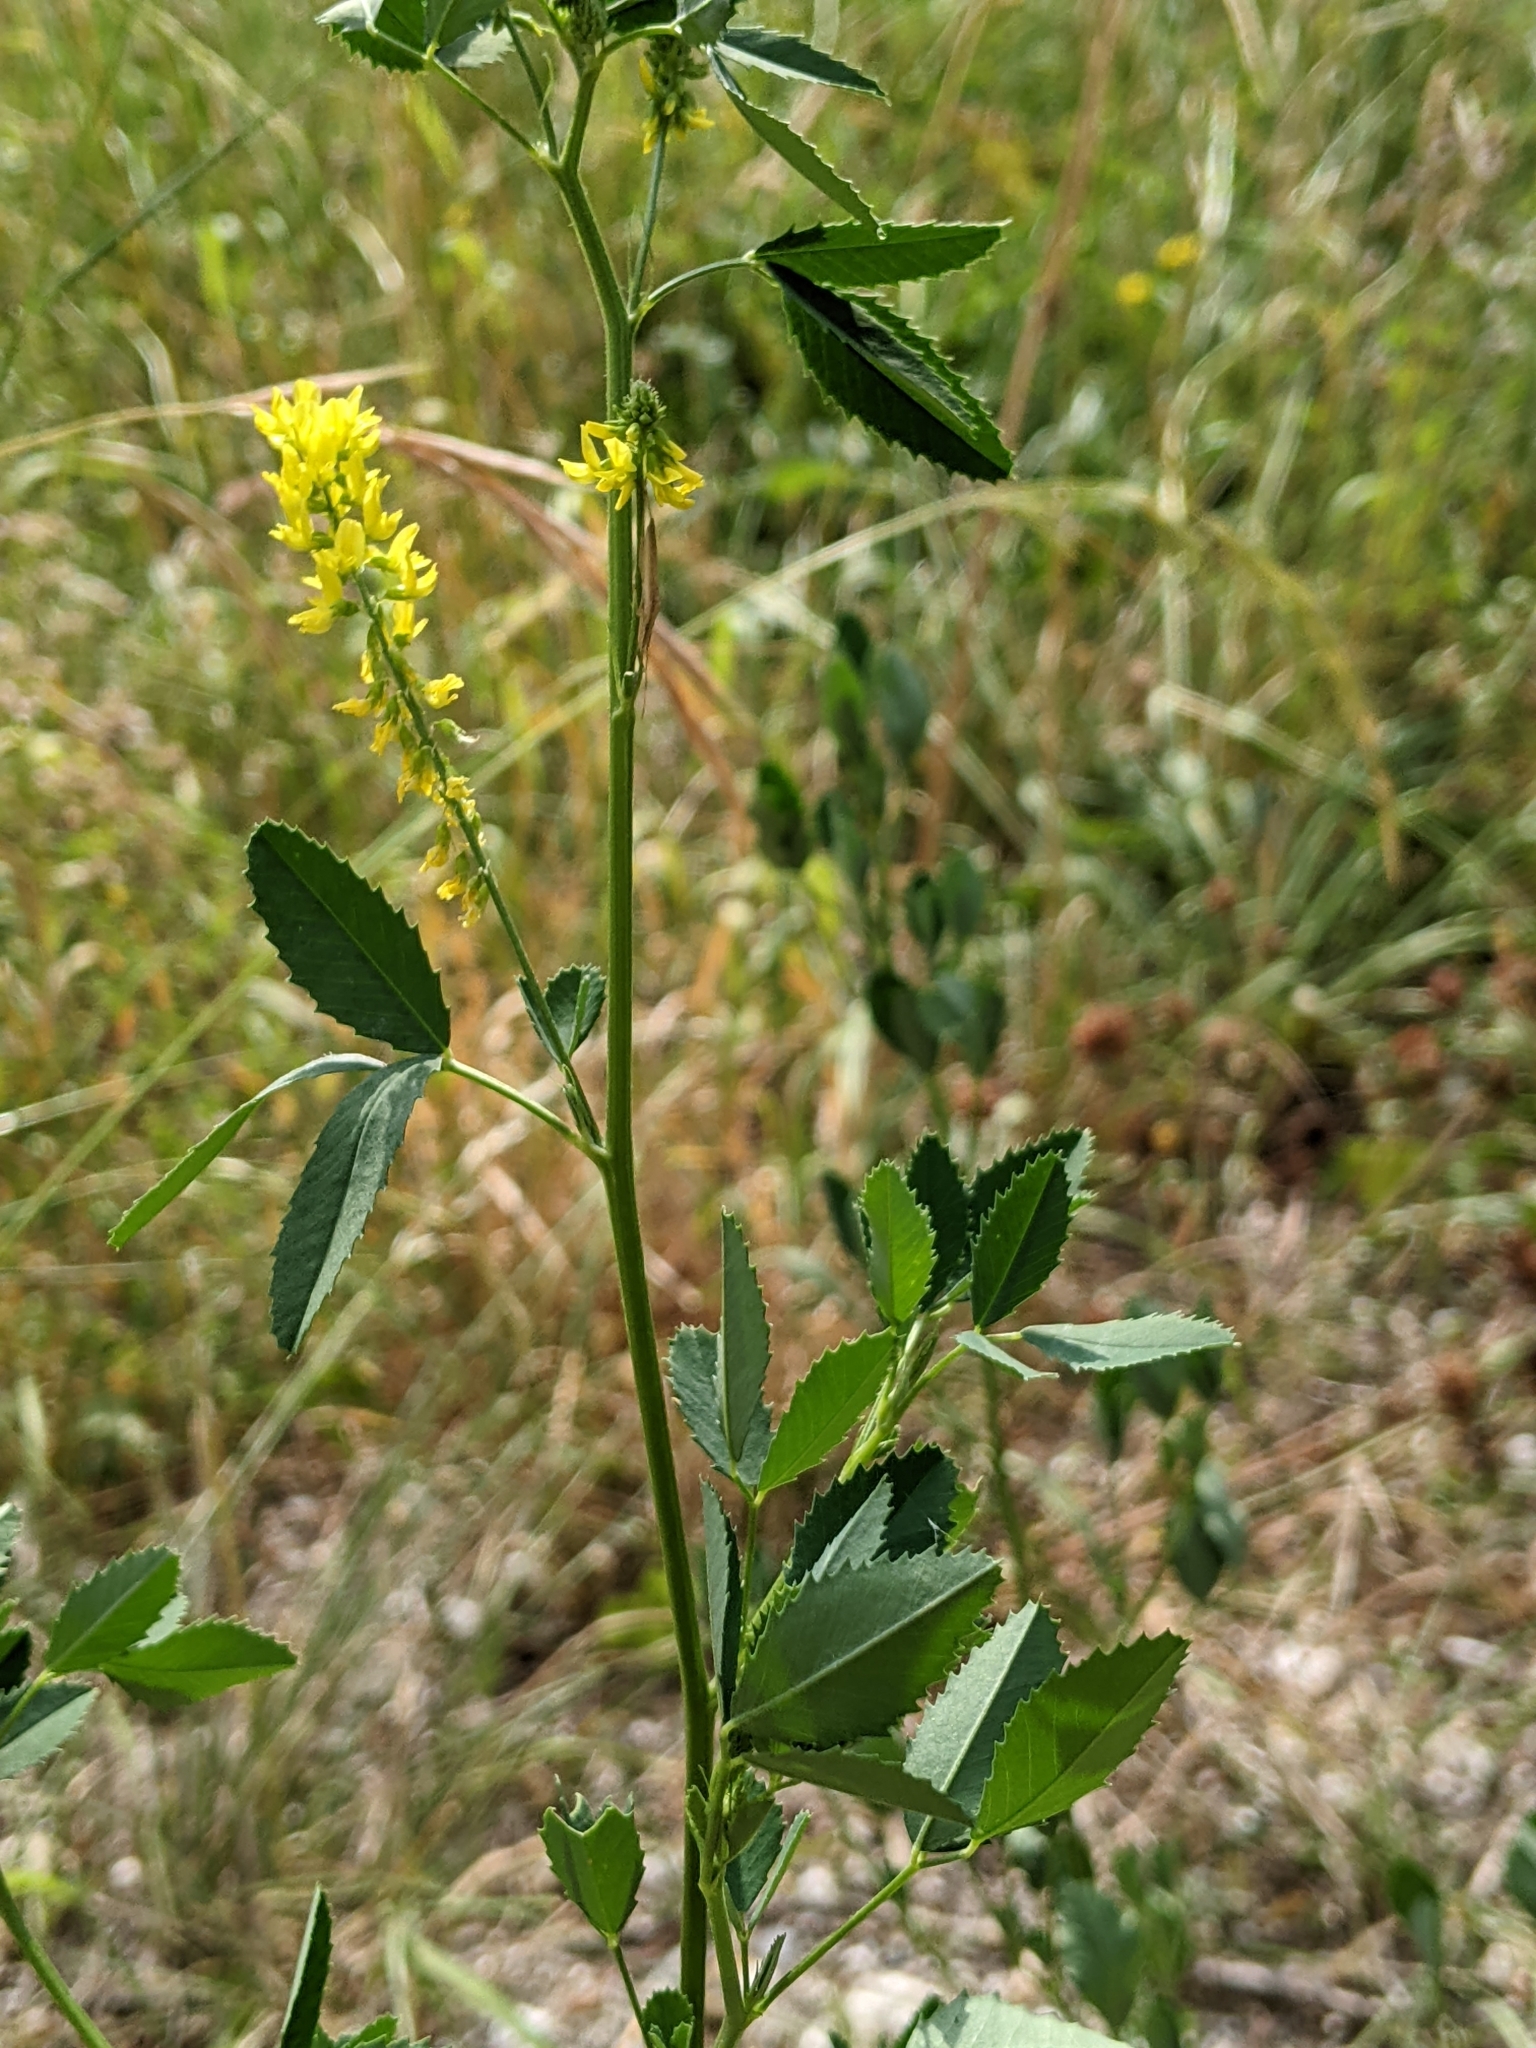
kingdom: Plantae
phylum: Tracheophyta
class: Magnoliopsida
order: Fabales
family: Fabaceae
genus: Melilotus
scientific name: Melilotus officinalis
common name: Sweetclover
